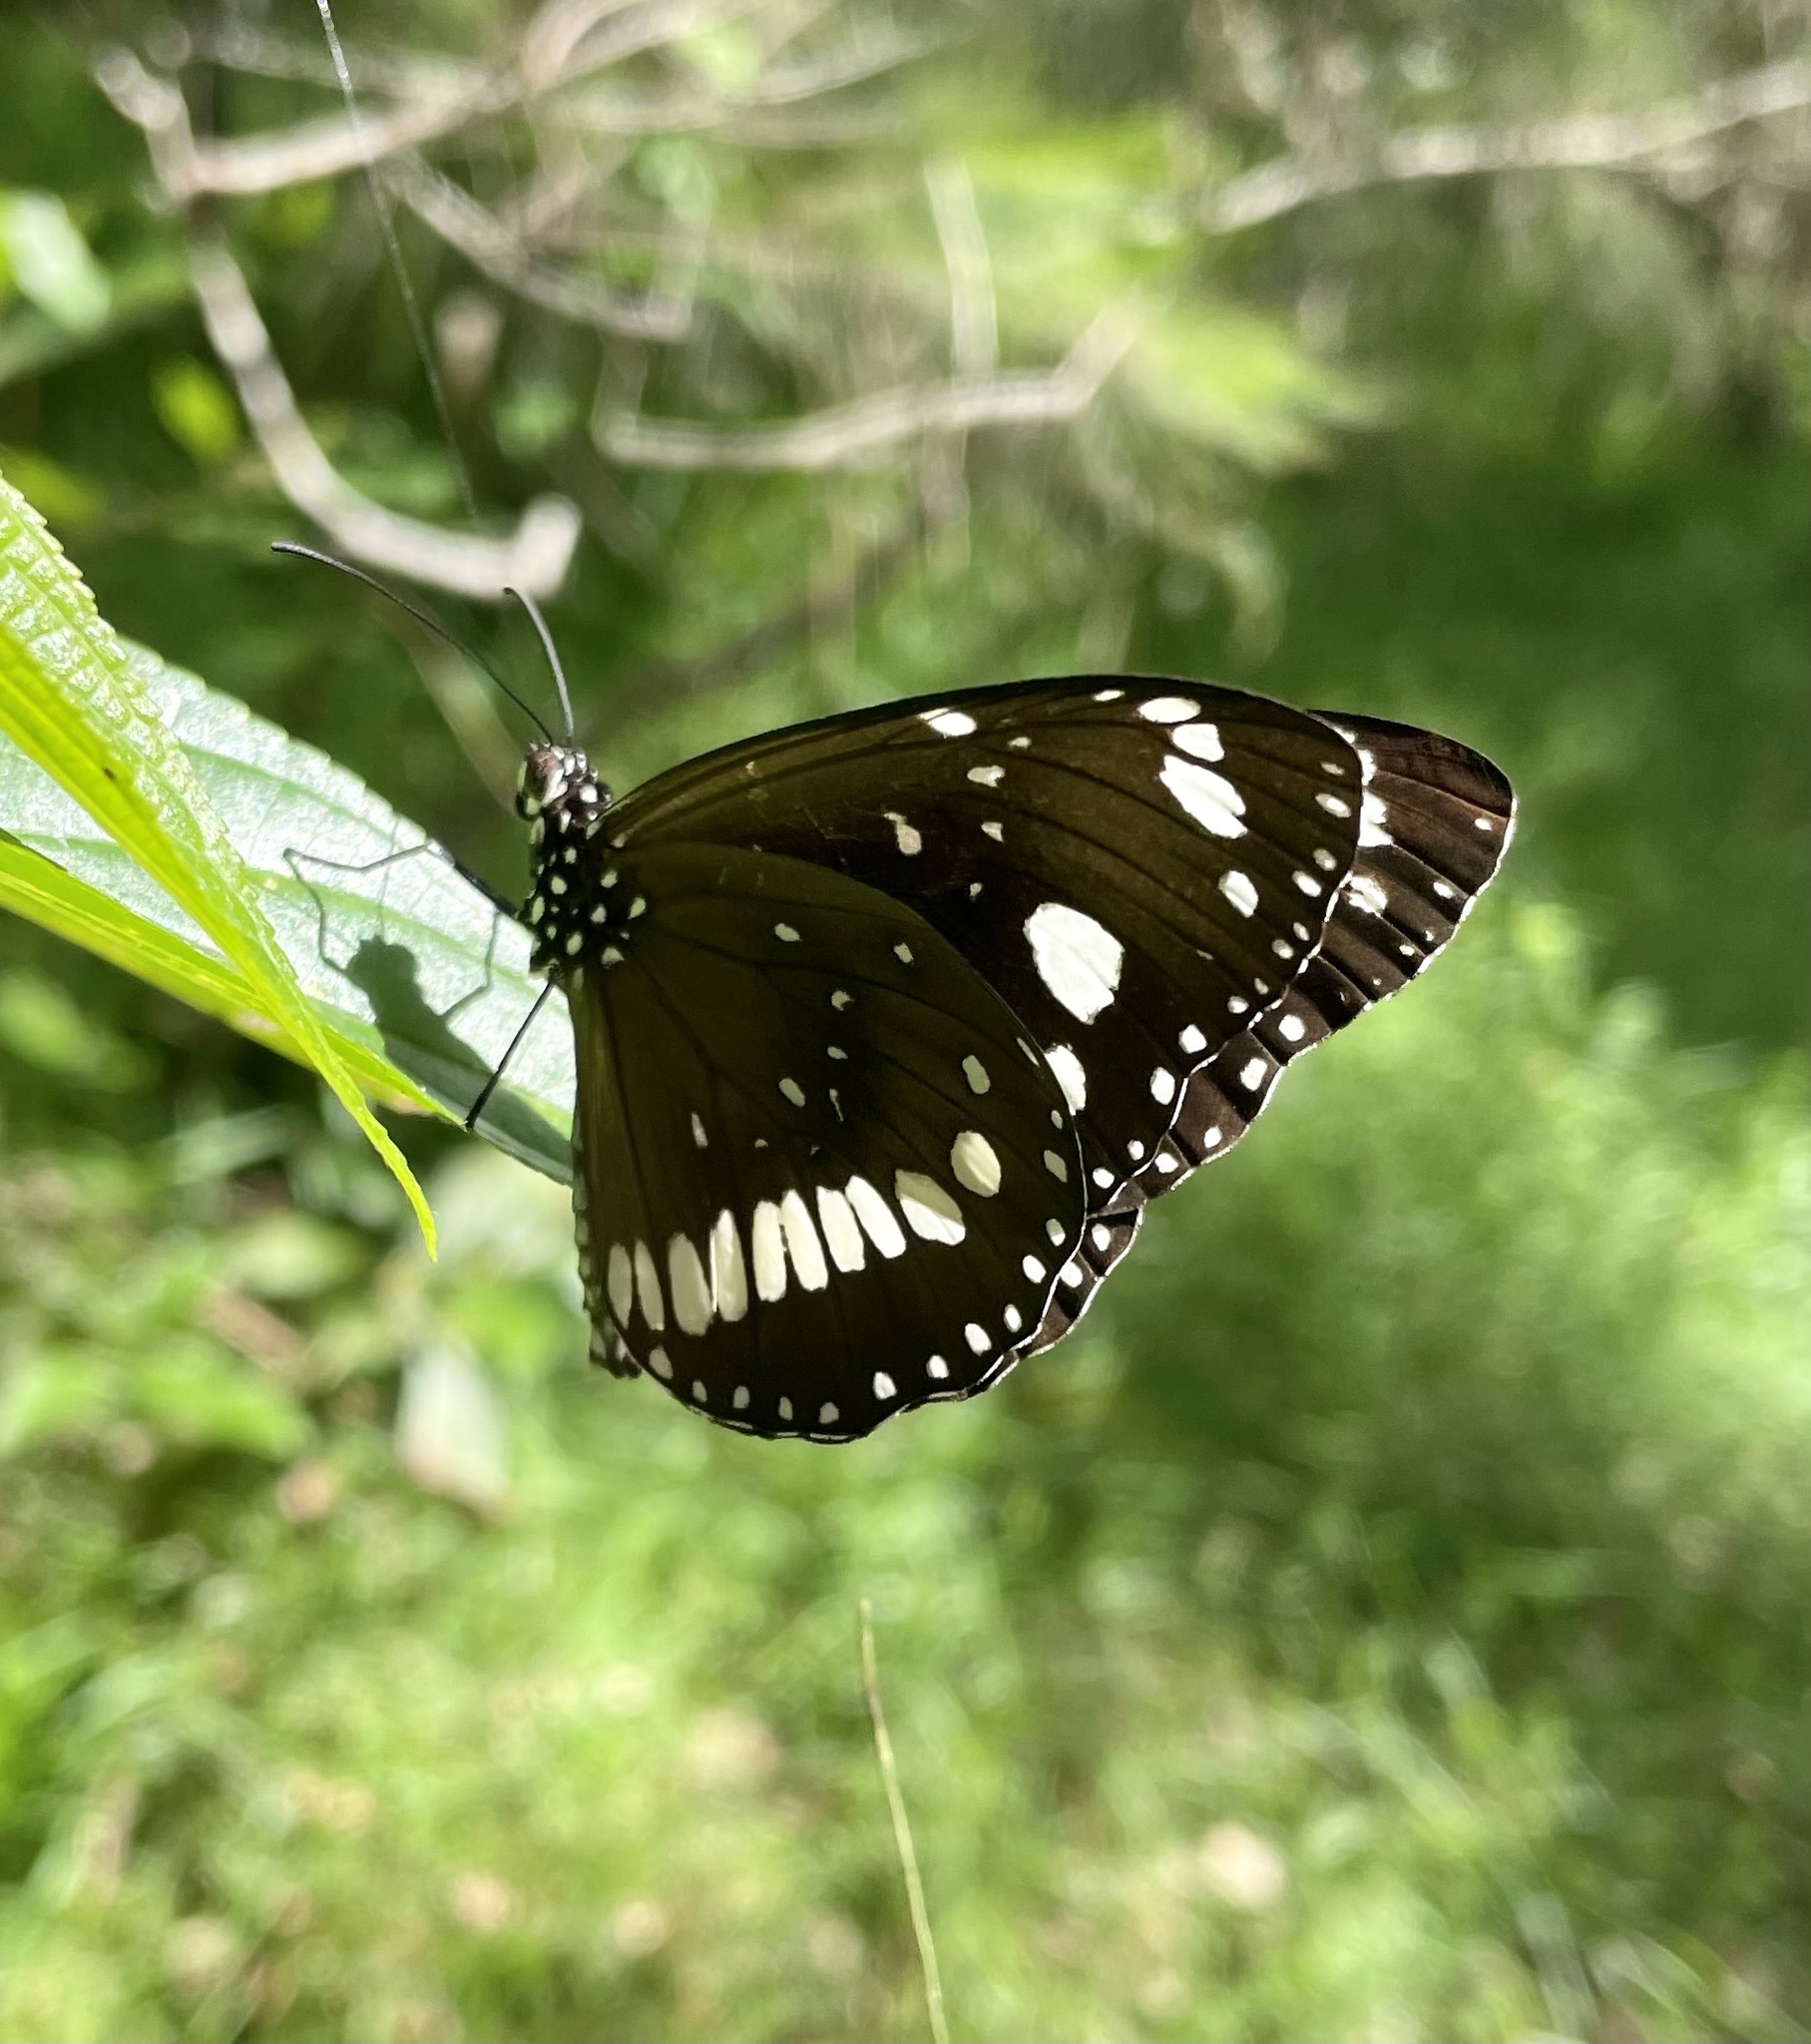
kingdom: Animalia
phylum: Arthropoda
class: Insecta
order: Lepidoptera
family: Nymphalidae
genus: Euploea
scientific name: Euploea core
